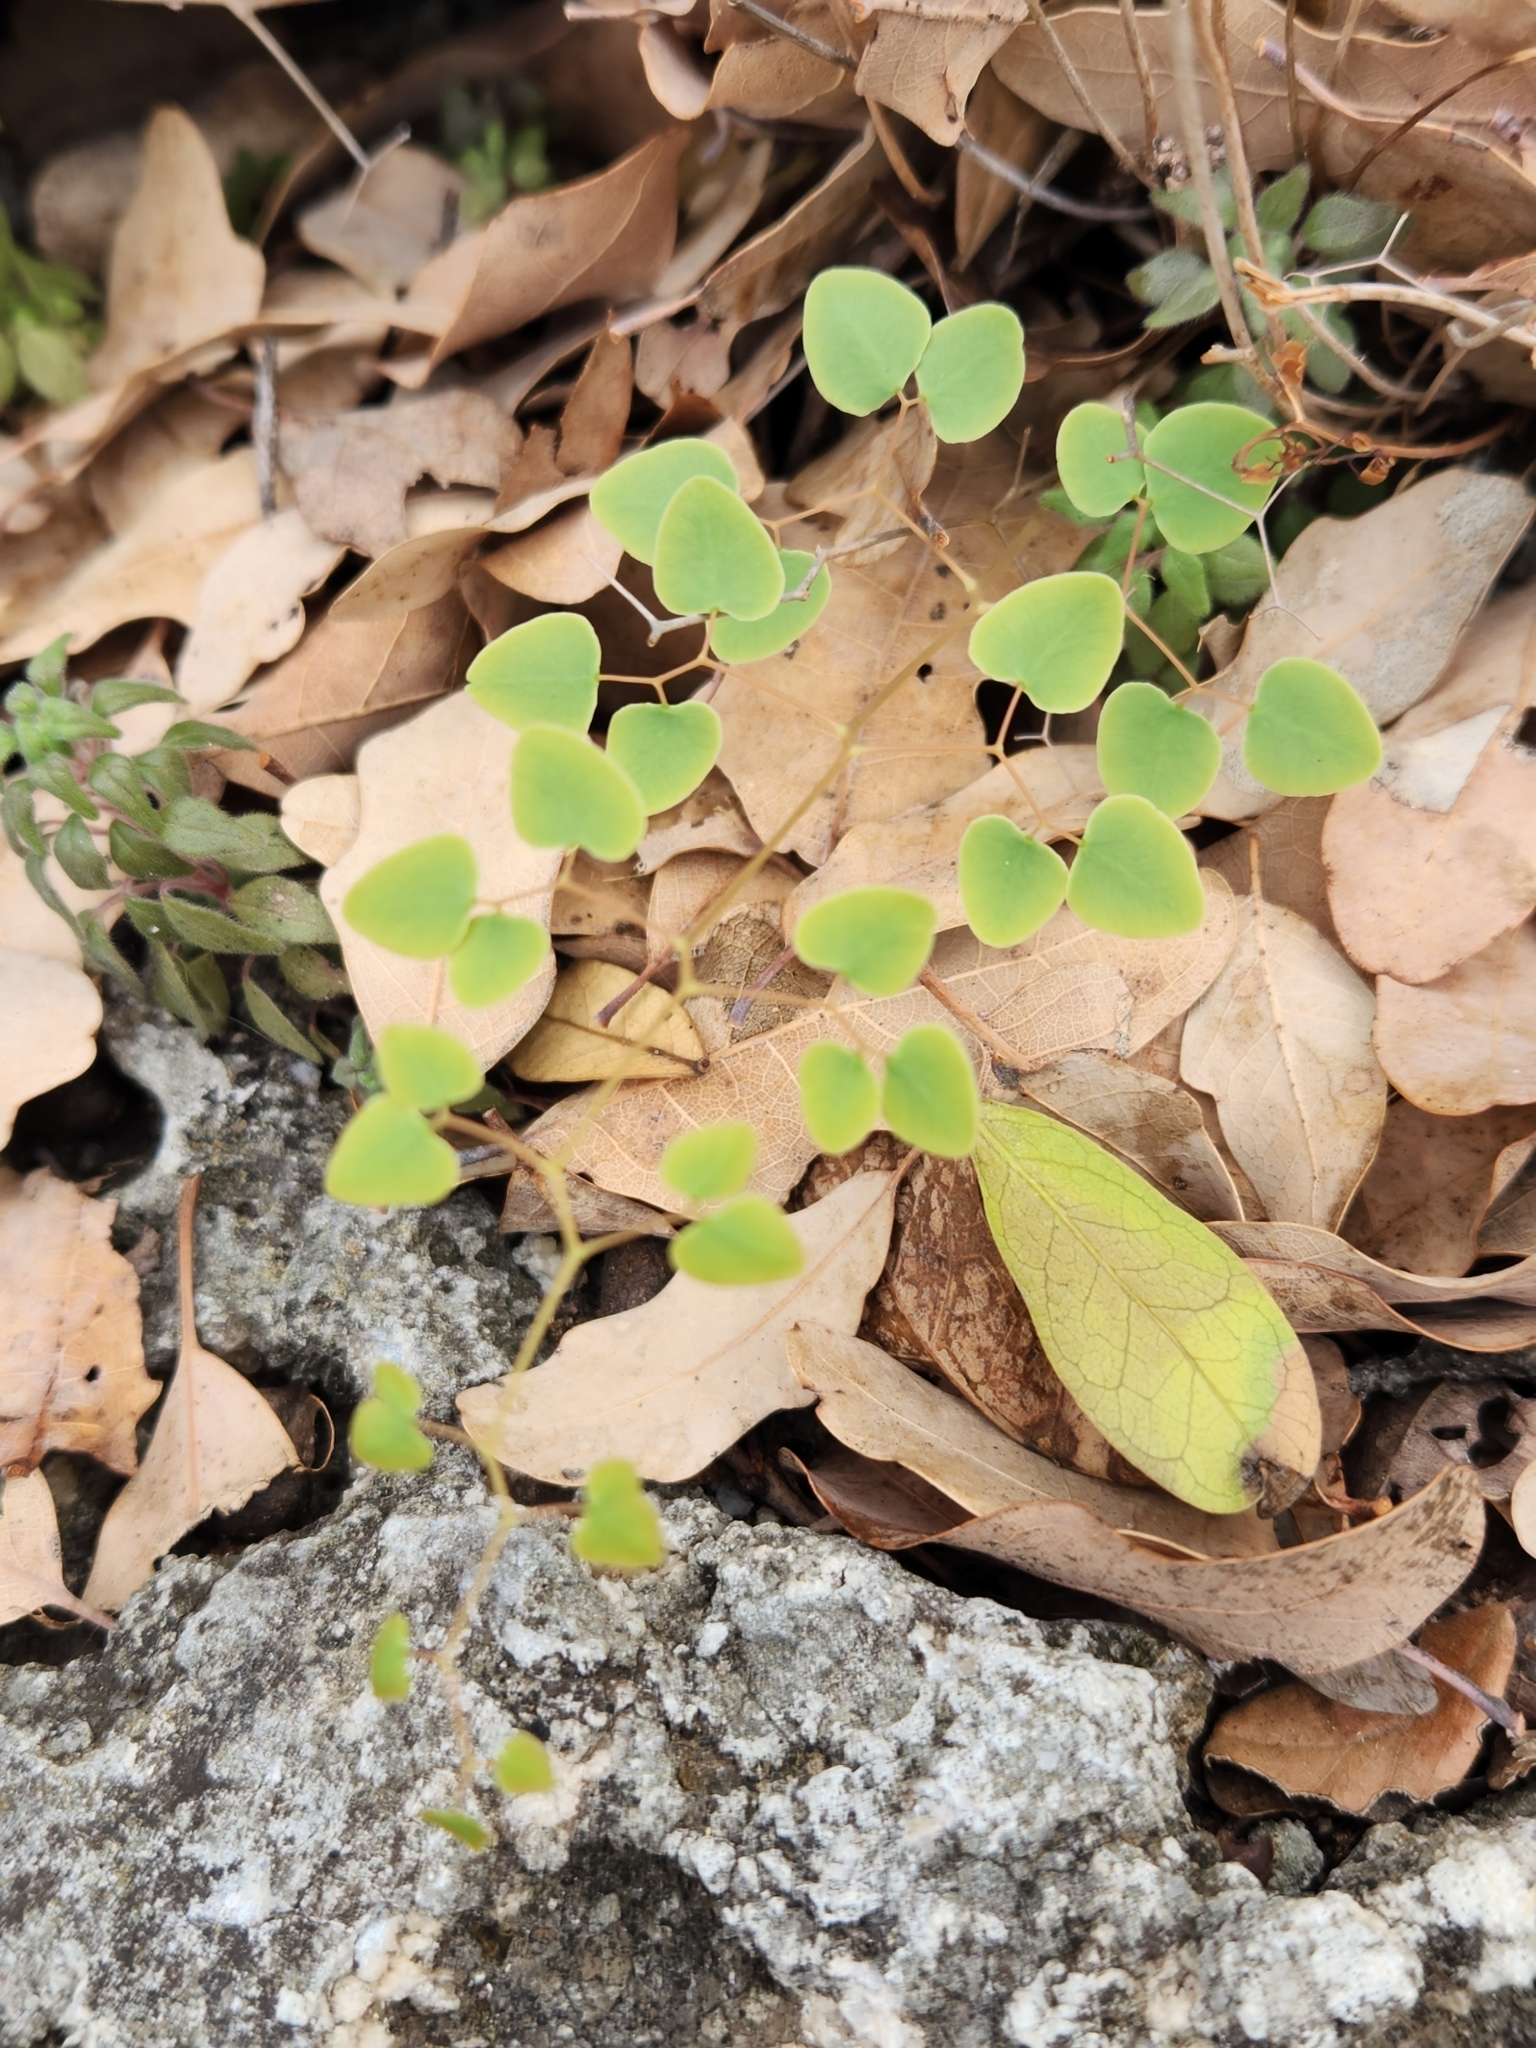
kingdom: Plantae
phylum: Tracheophyta
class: Polypodiopsida
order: Polypodiales
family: Pteridaceae
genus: Pellaea
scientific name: Pellaea ovata
